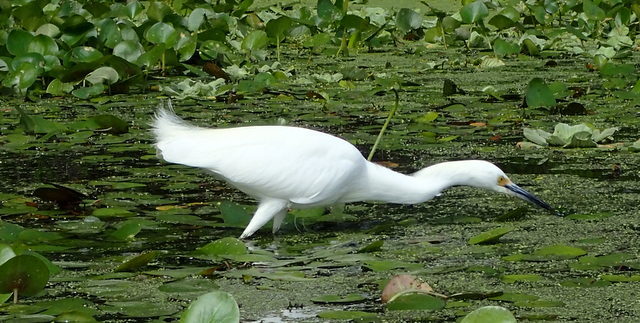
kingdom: Animalia
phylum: Chordata
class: Aves
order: Pelecaniformes
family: Ardeidae
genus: Egretta
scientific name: Egretta thula
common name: Snowy egret
